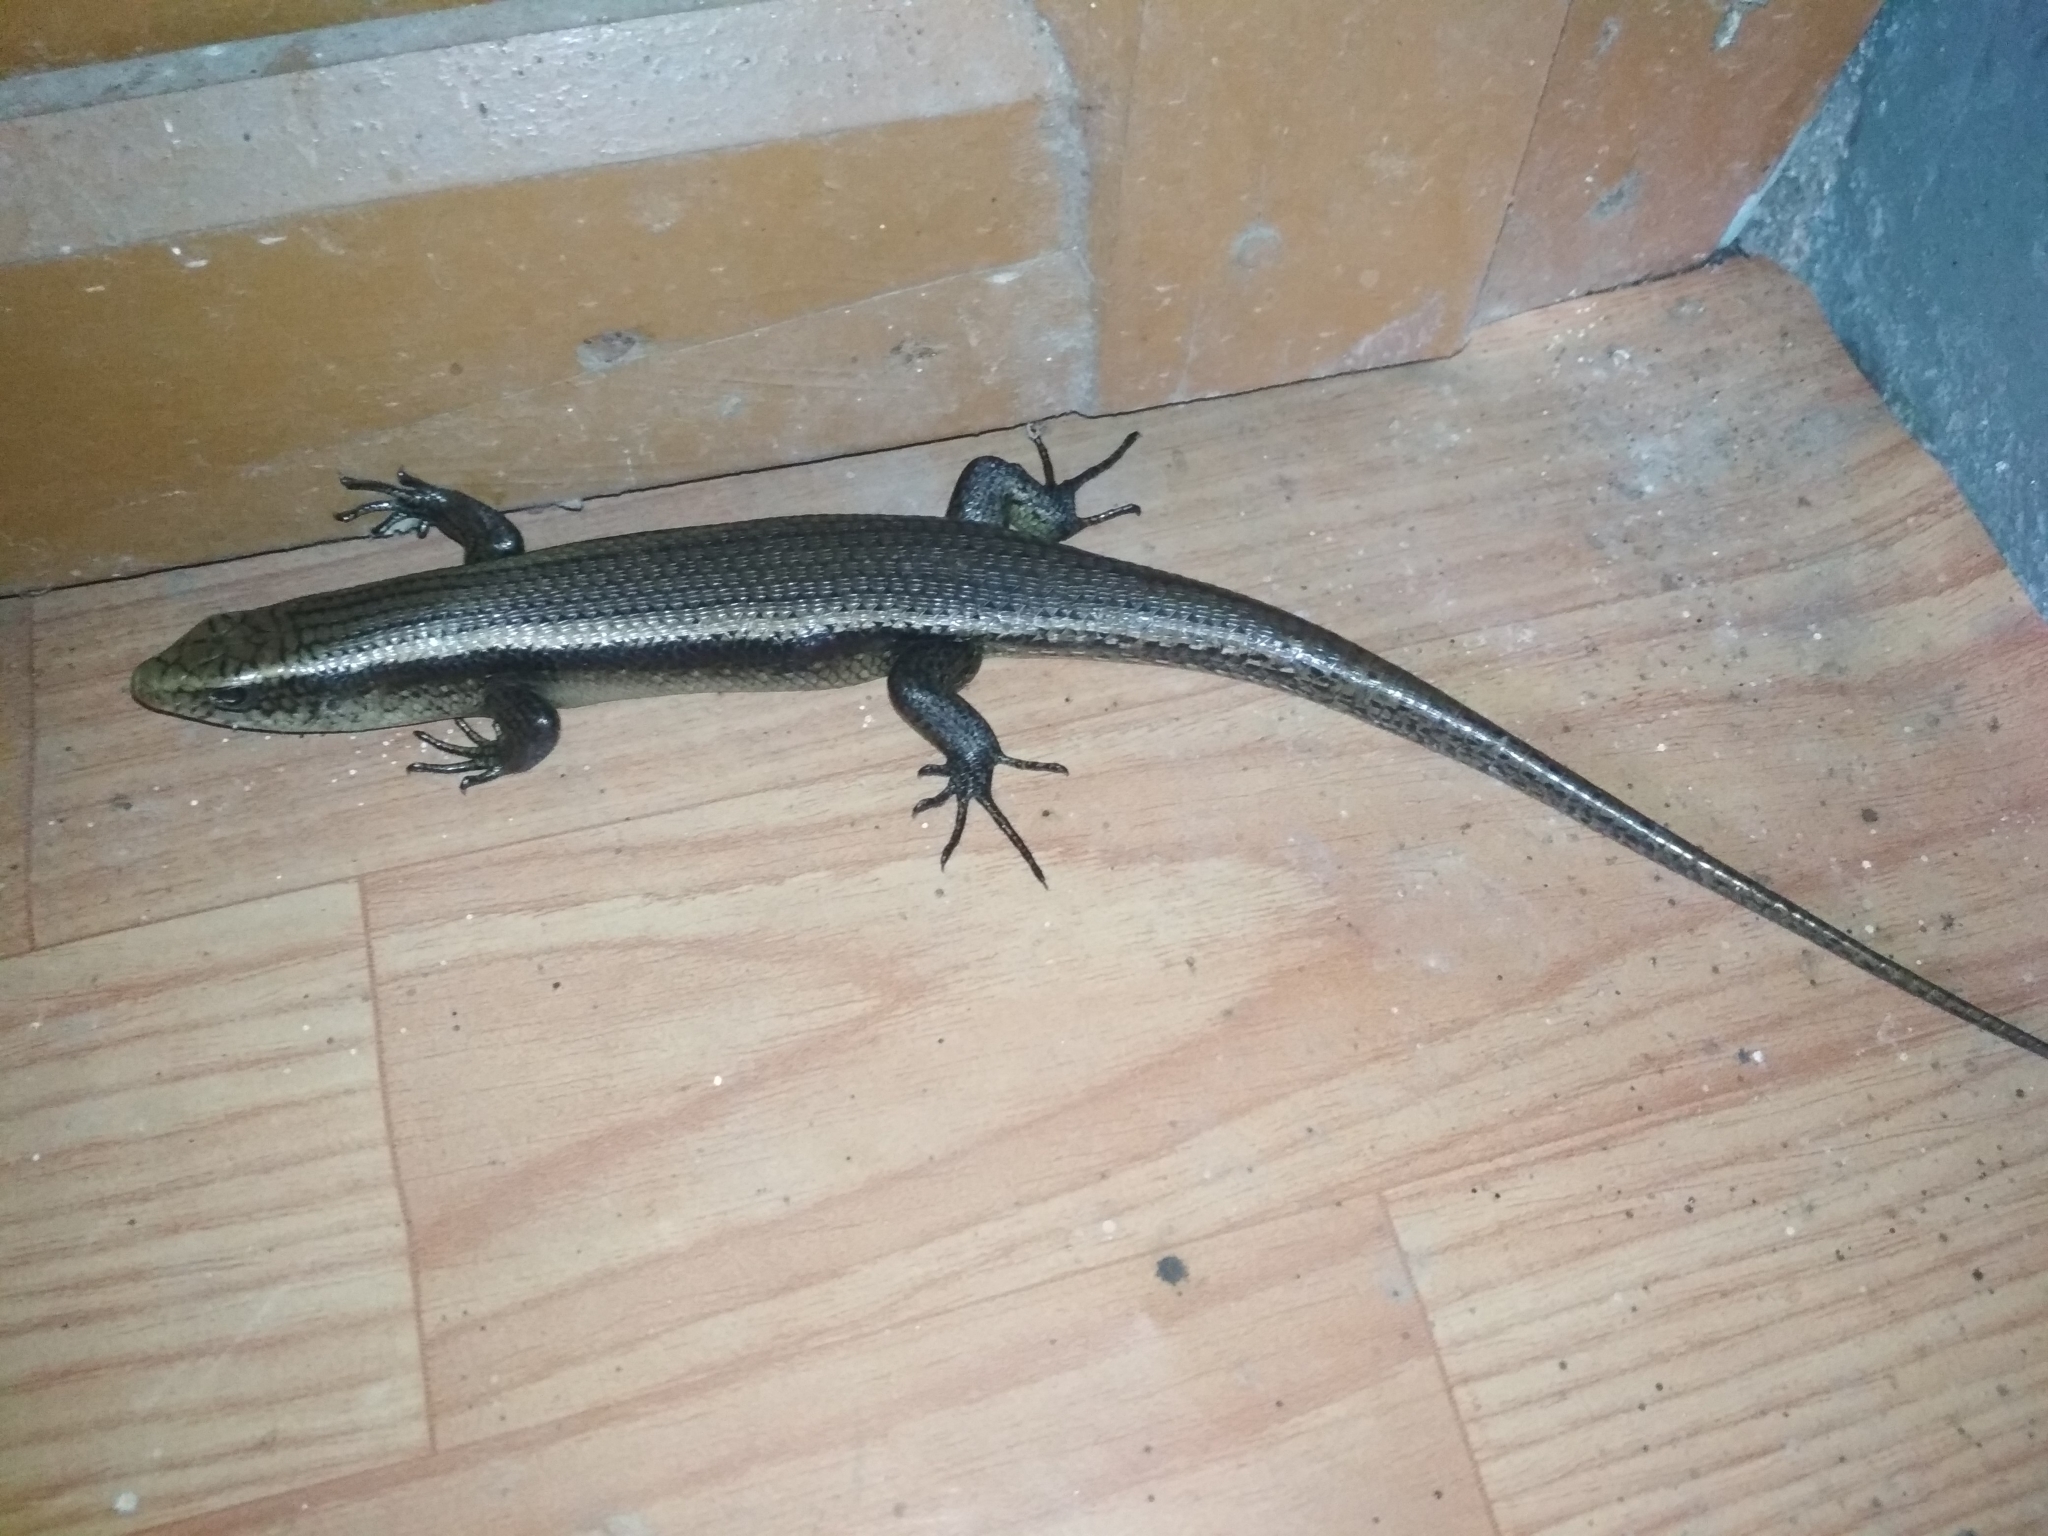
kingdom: Animalia
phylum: Chordata
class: Squamata
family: Scincidae
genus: Eutropis
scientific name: Eutropis multifasciata
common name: Common mabuya
